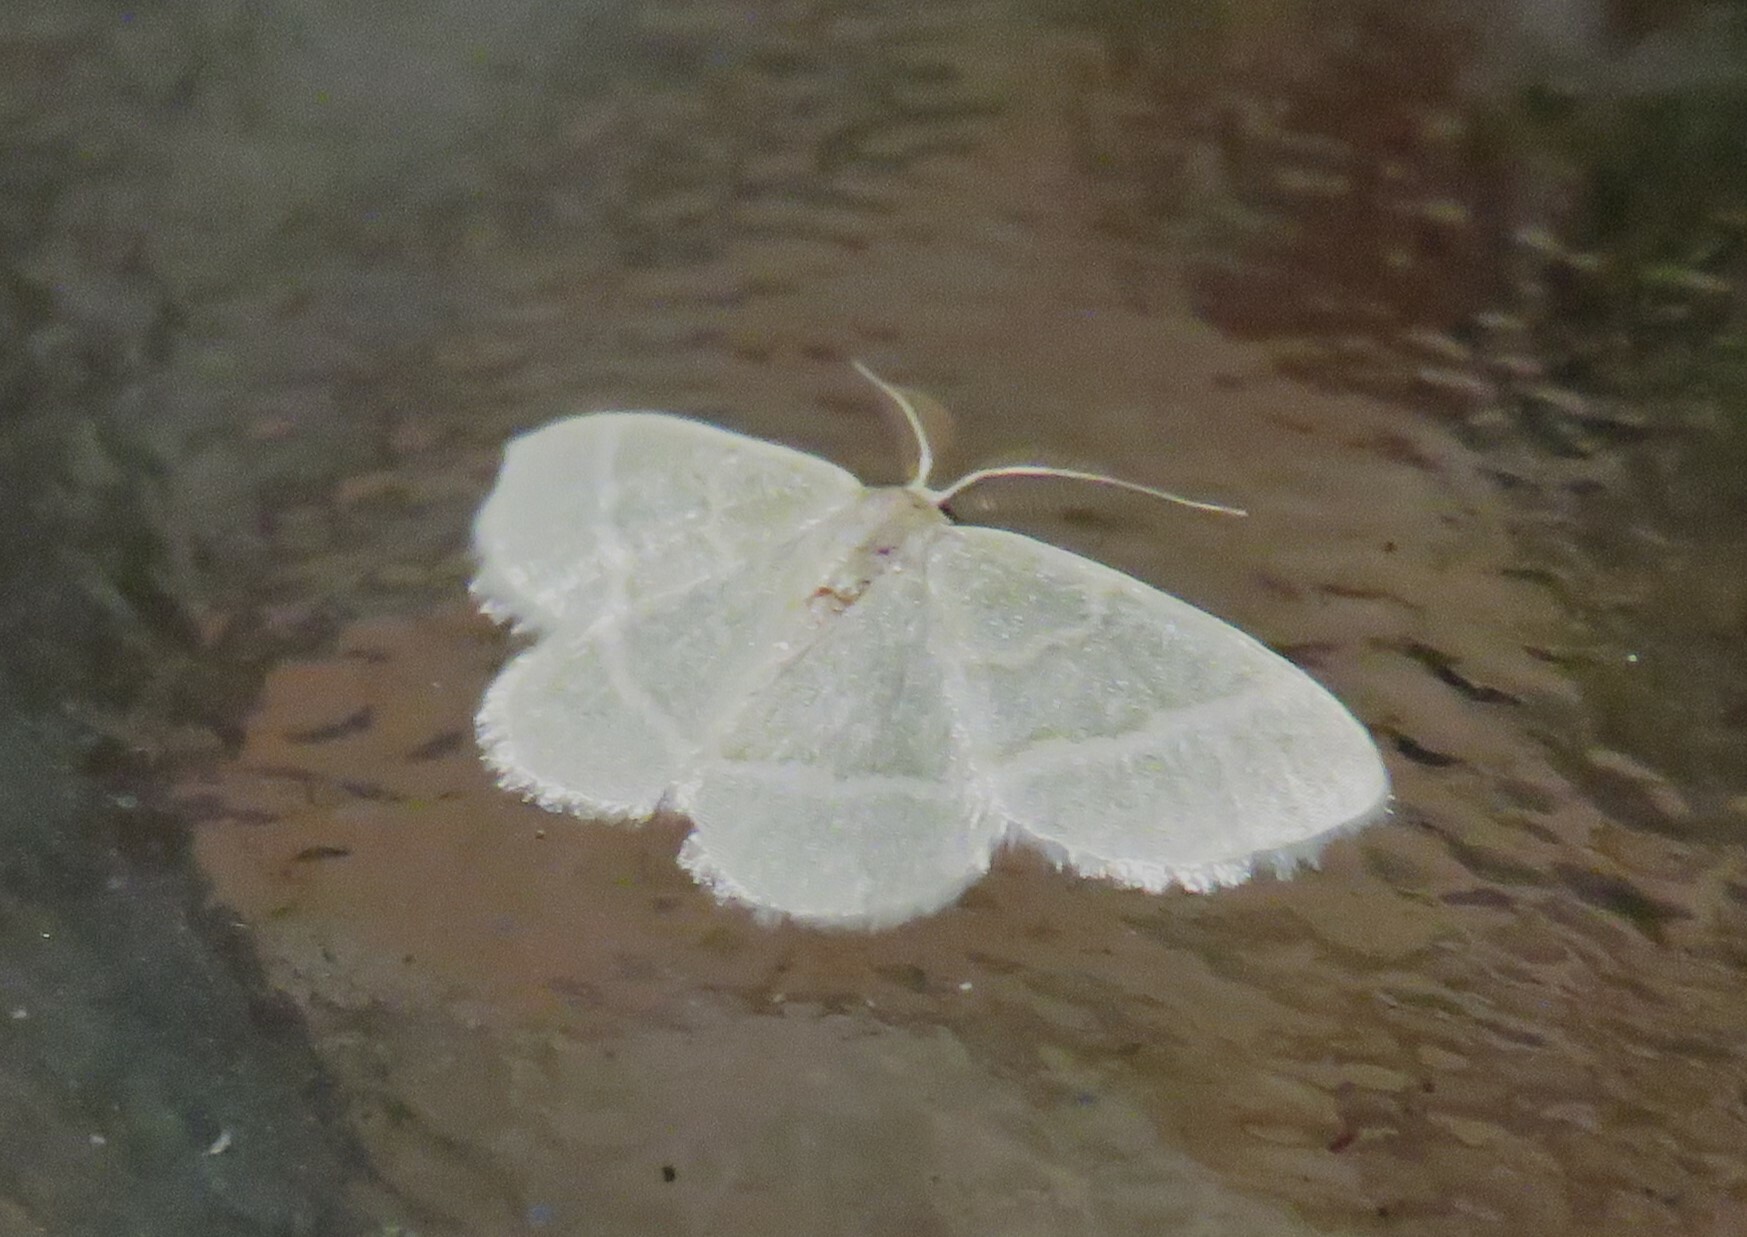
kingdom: Animalia
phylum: Arthropoda
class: Insecta
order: Lepidoptera
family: Geometridae
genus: Chlorochlamys
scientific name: Chlorochlamys chloroleucaria
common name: Blackberry looper
